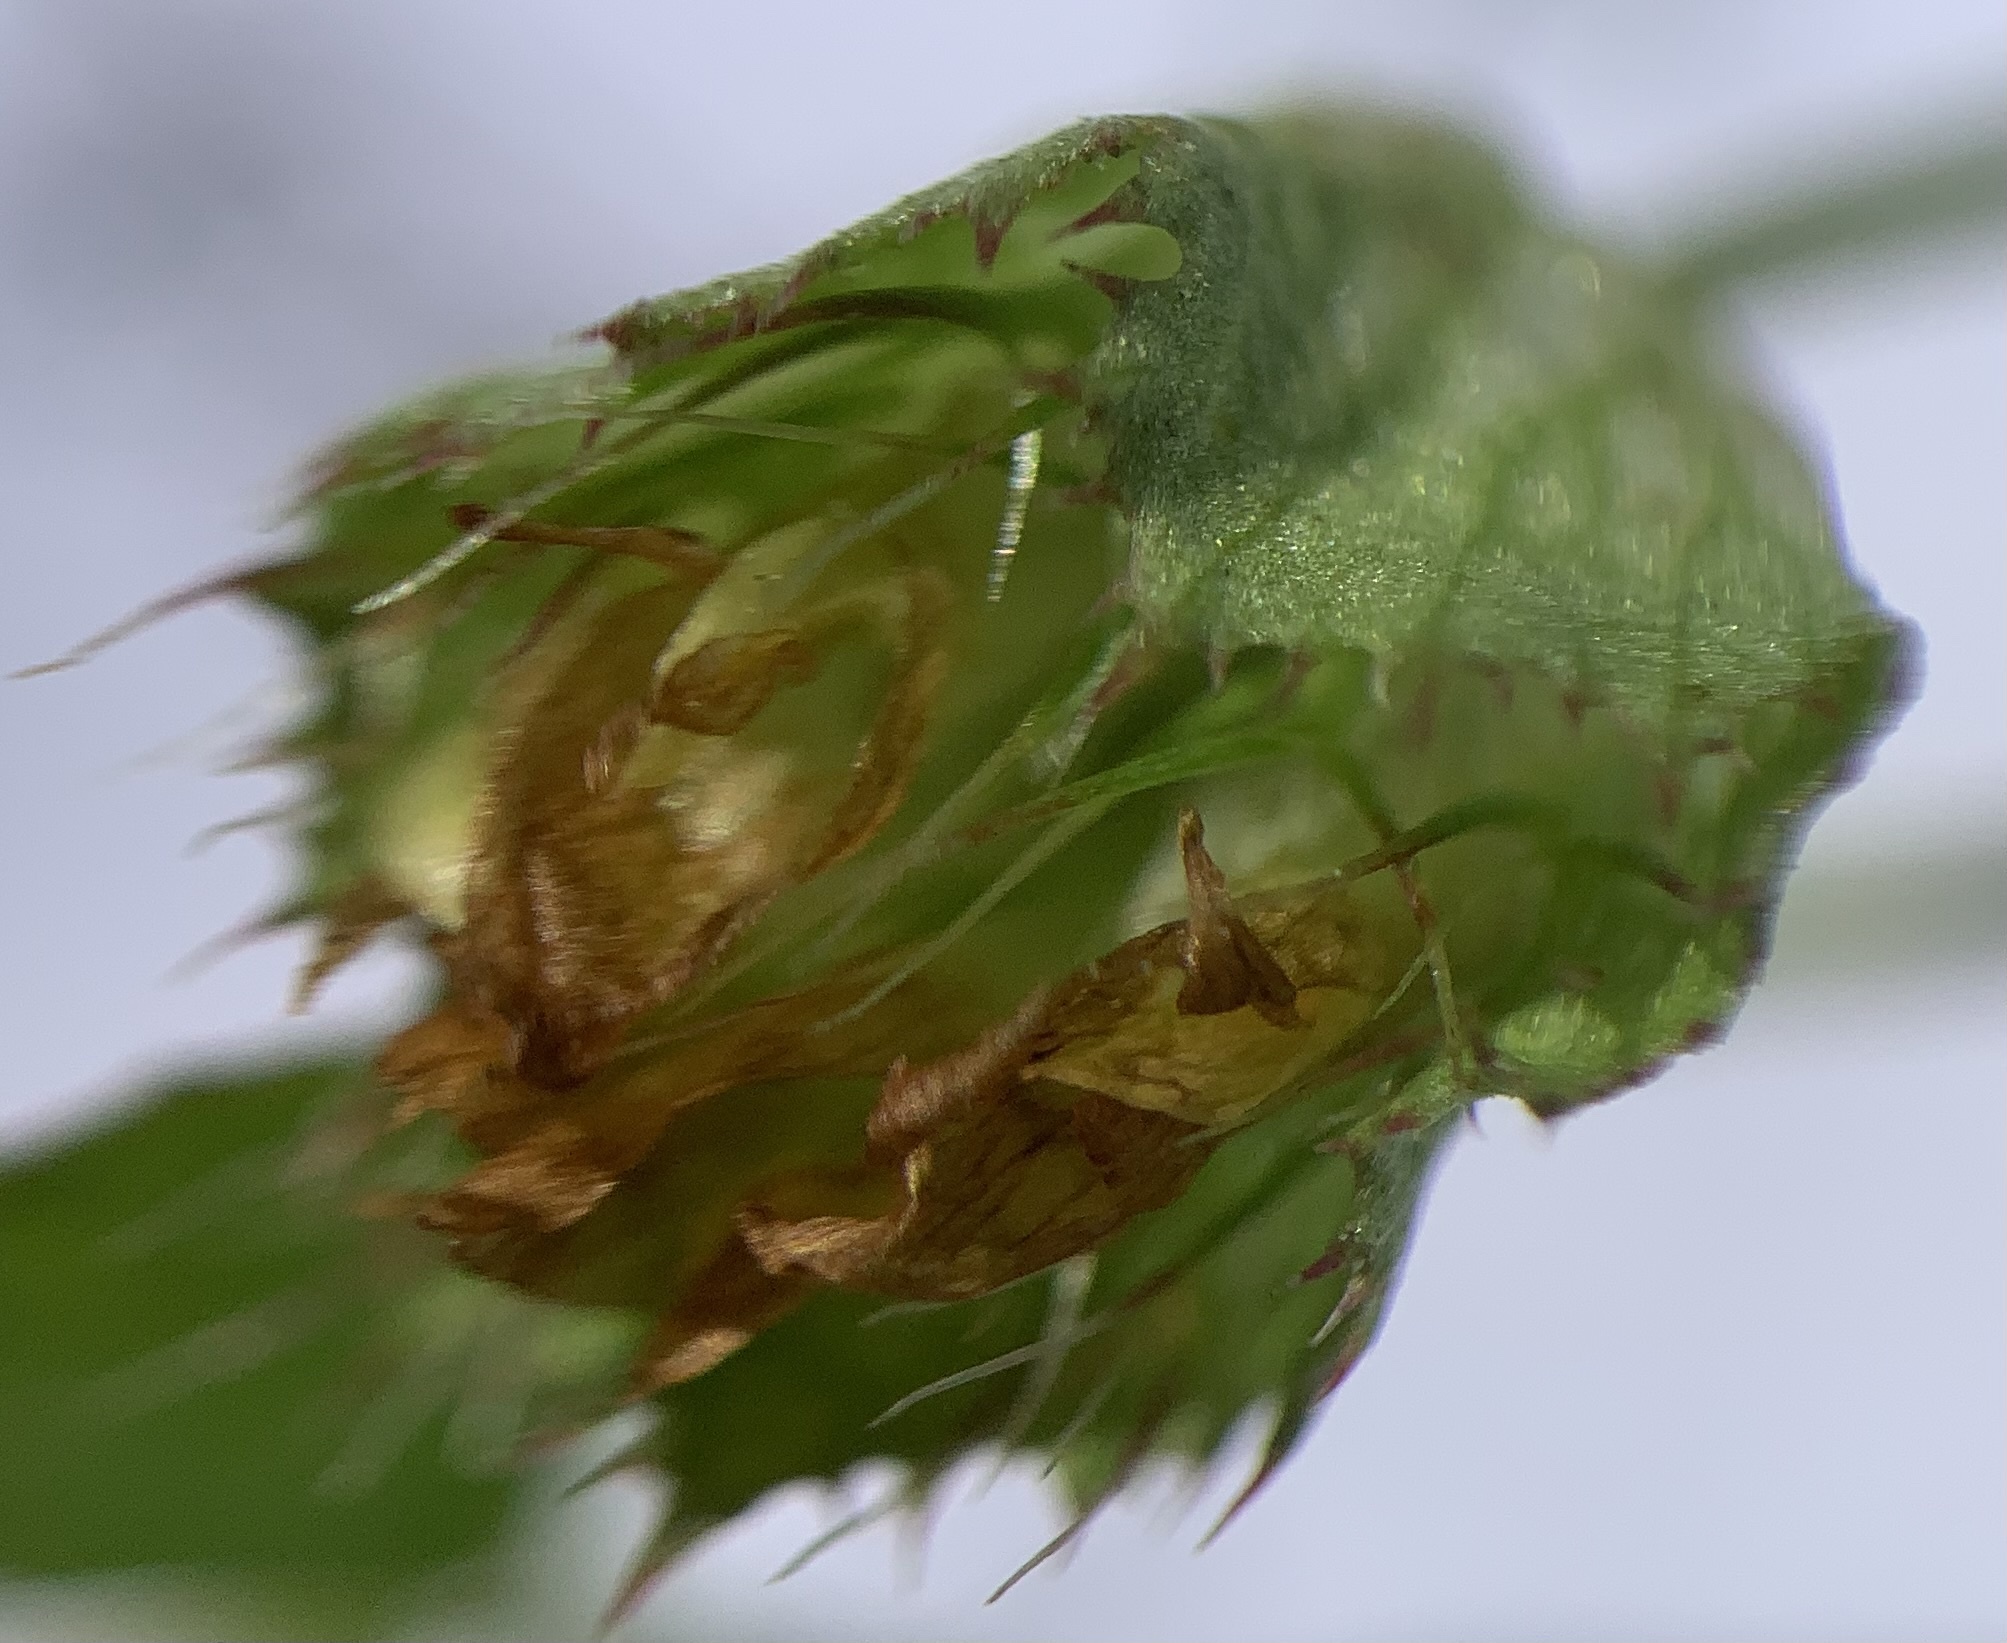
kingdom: Plantae
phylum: Tracheophyta
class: Magnoliopsida
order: Fabales
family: Fabaceae
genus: Trifolium
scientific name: Trifolium cyathiferum
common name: Bowl clover
